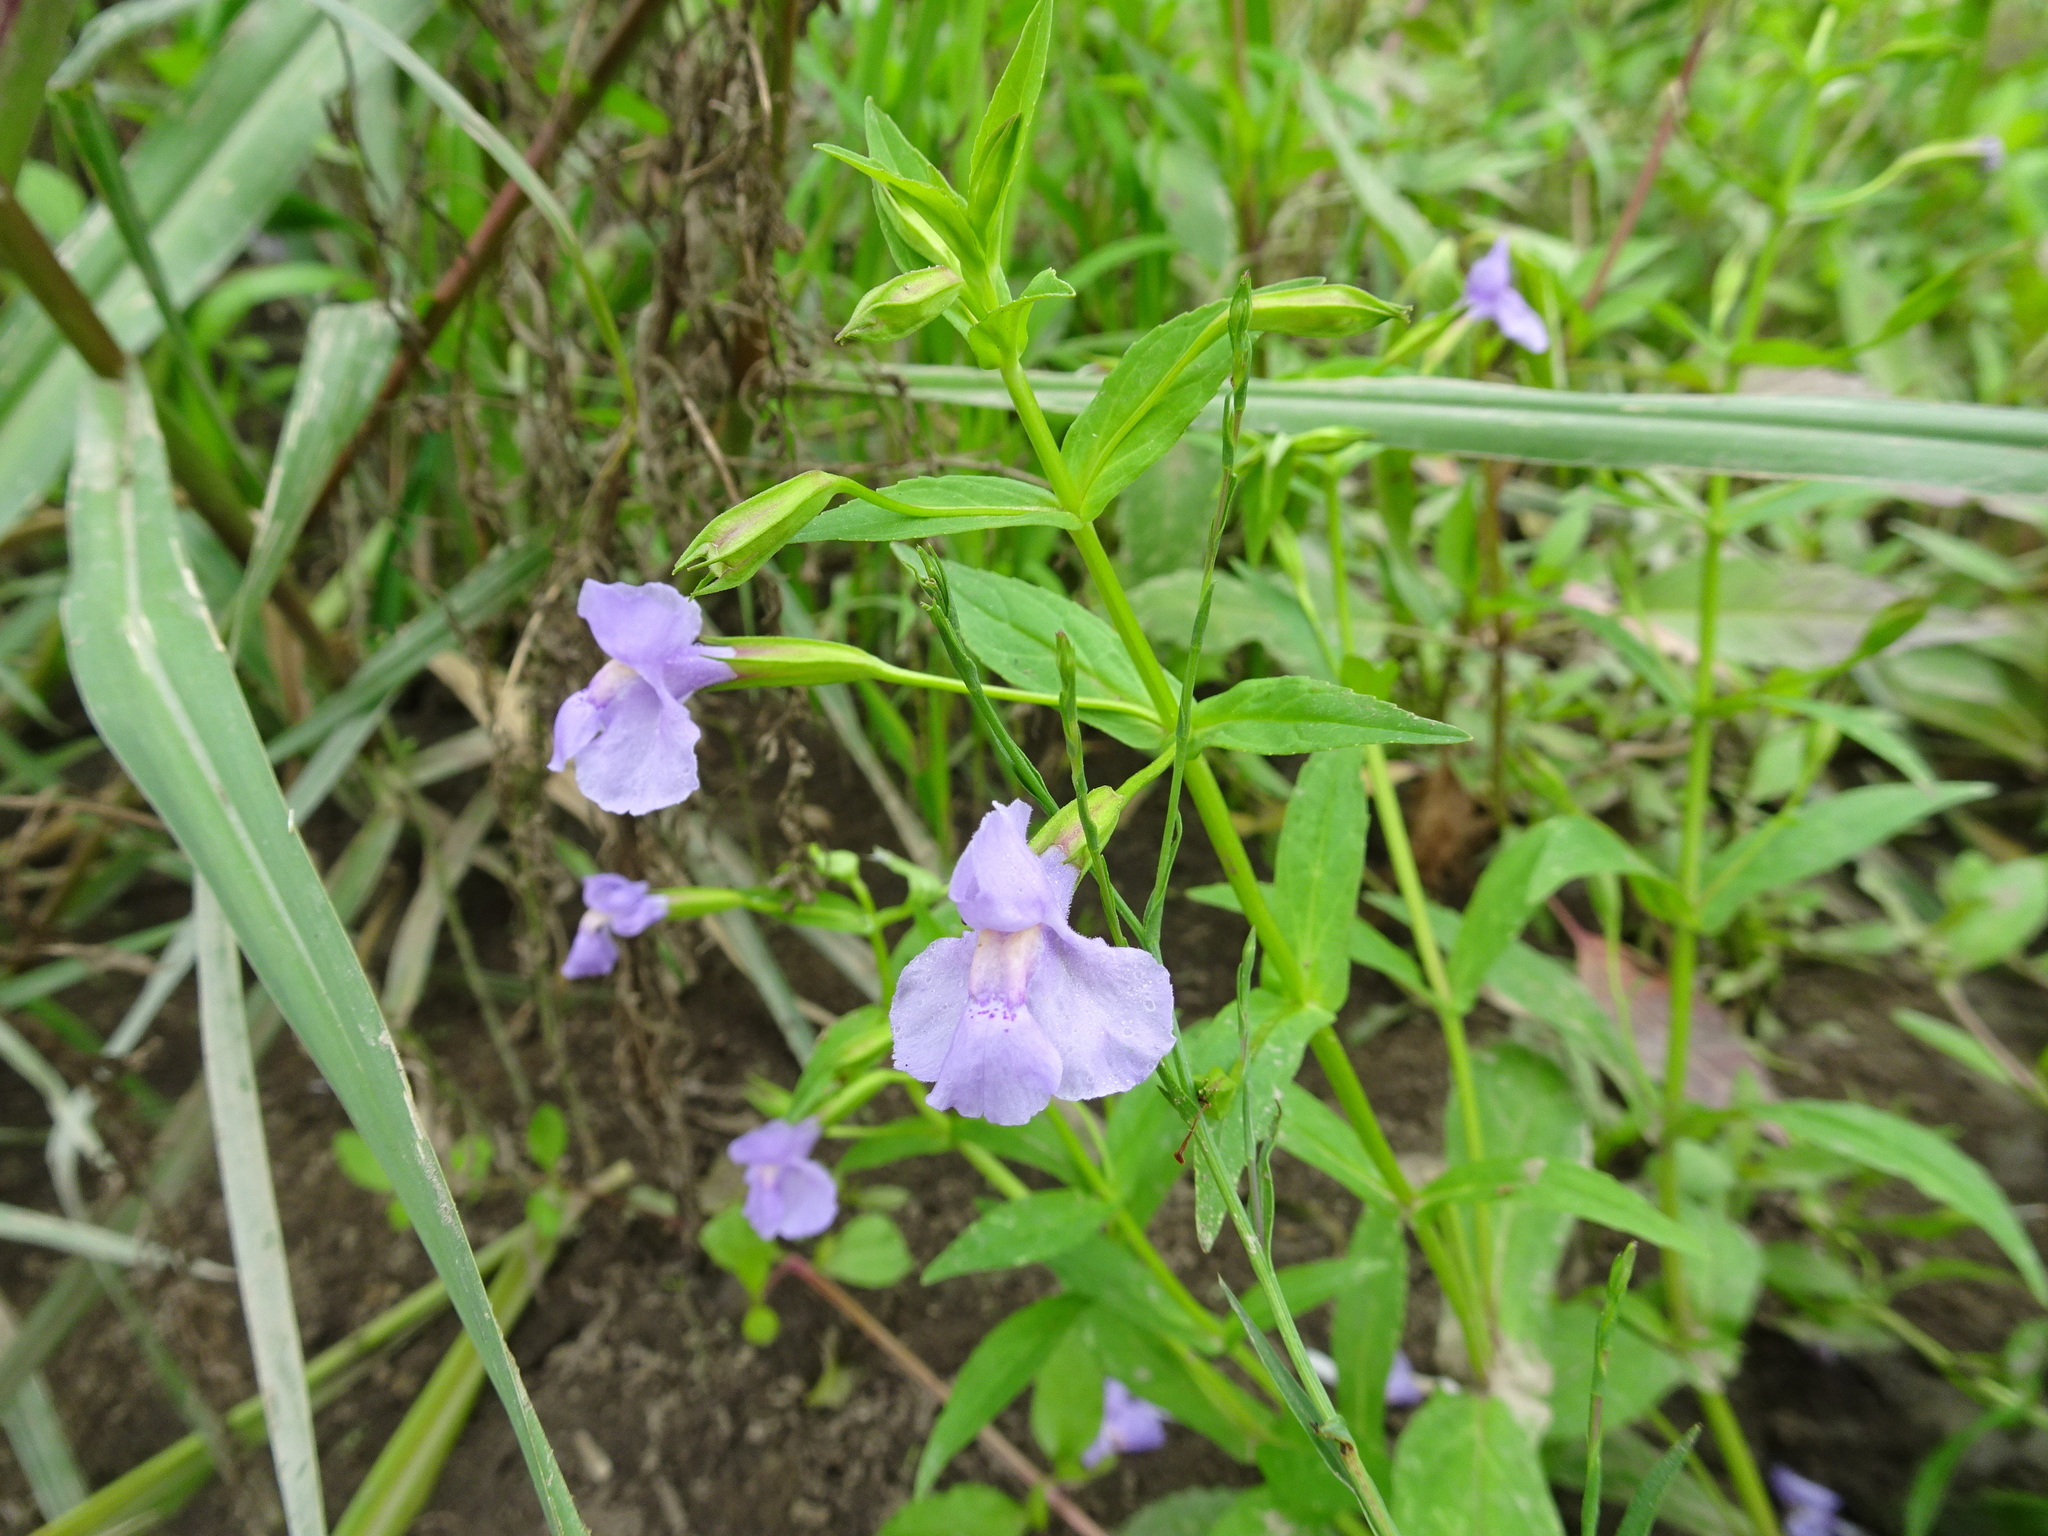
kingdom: Plantae
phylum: Tracheophyta
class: Magnoliopsida
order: Lamiales
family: Phrymaceae
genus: Mimulus
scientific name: Mimulus ringens
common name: Allegheny monkeyflower
